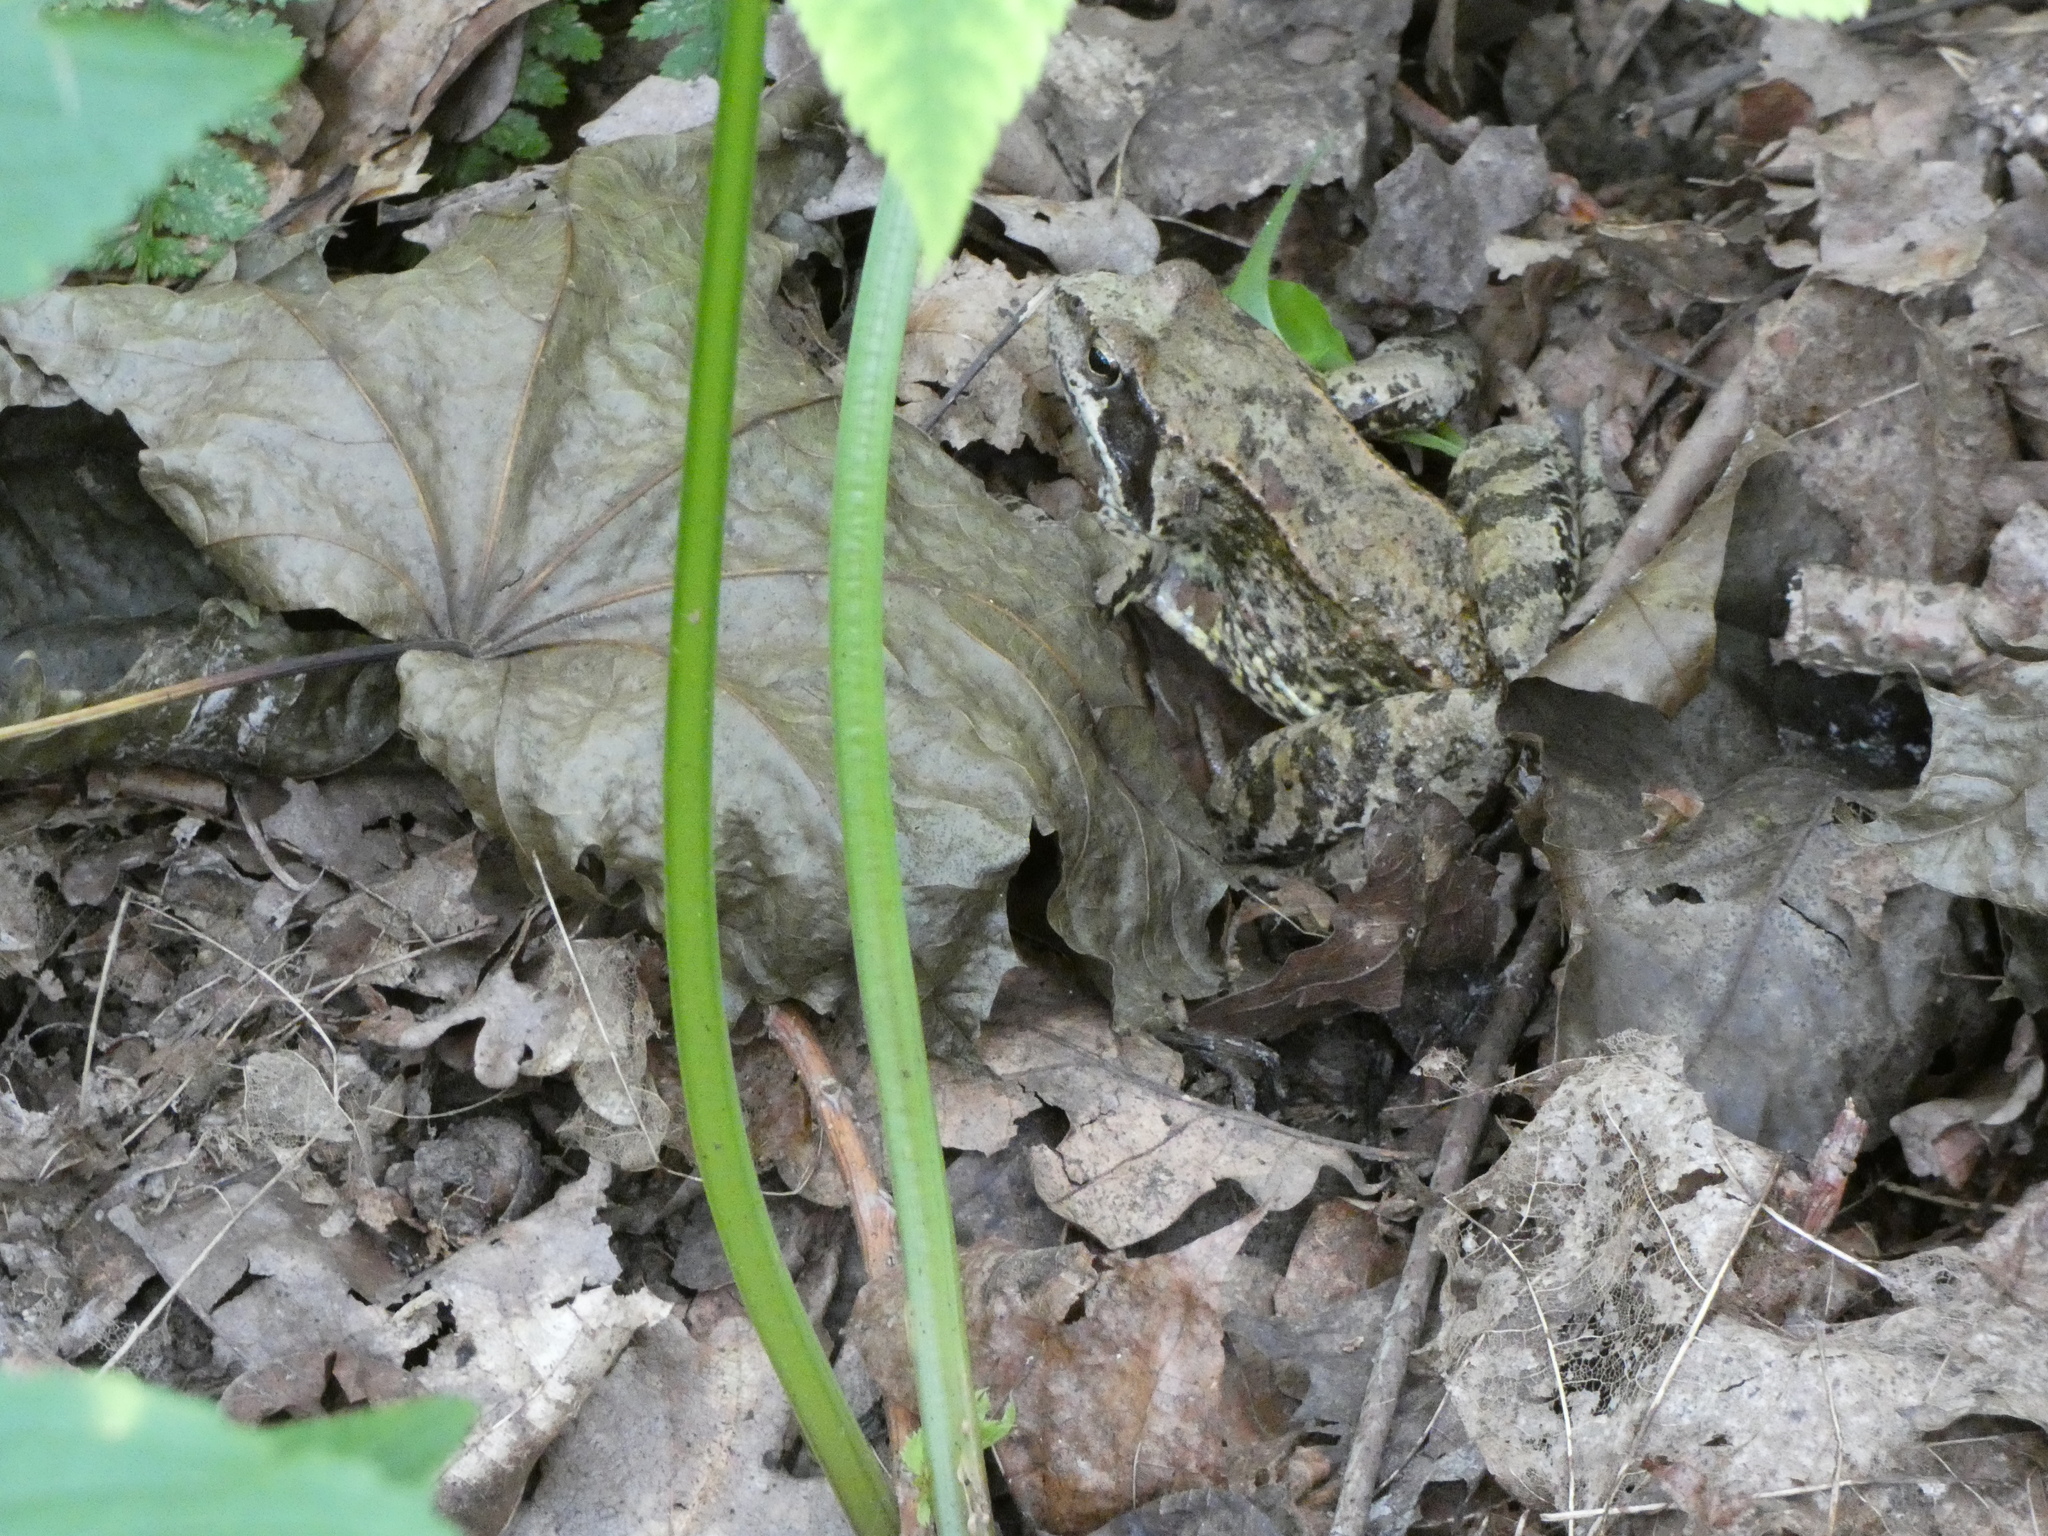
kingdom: Animalia
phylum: Chordata
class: Amphibia
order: Anura
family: Ranidae
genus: Rana
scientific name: Rana temporaria
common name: Common frog
